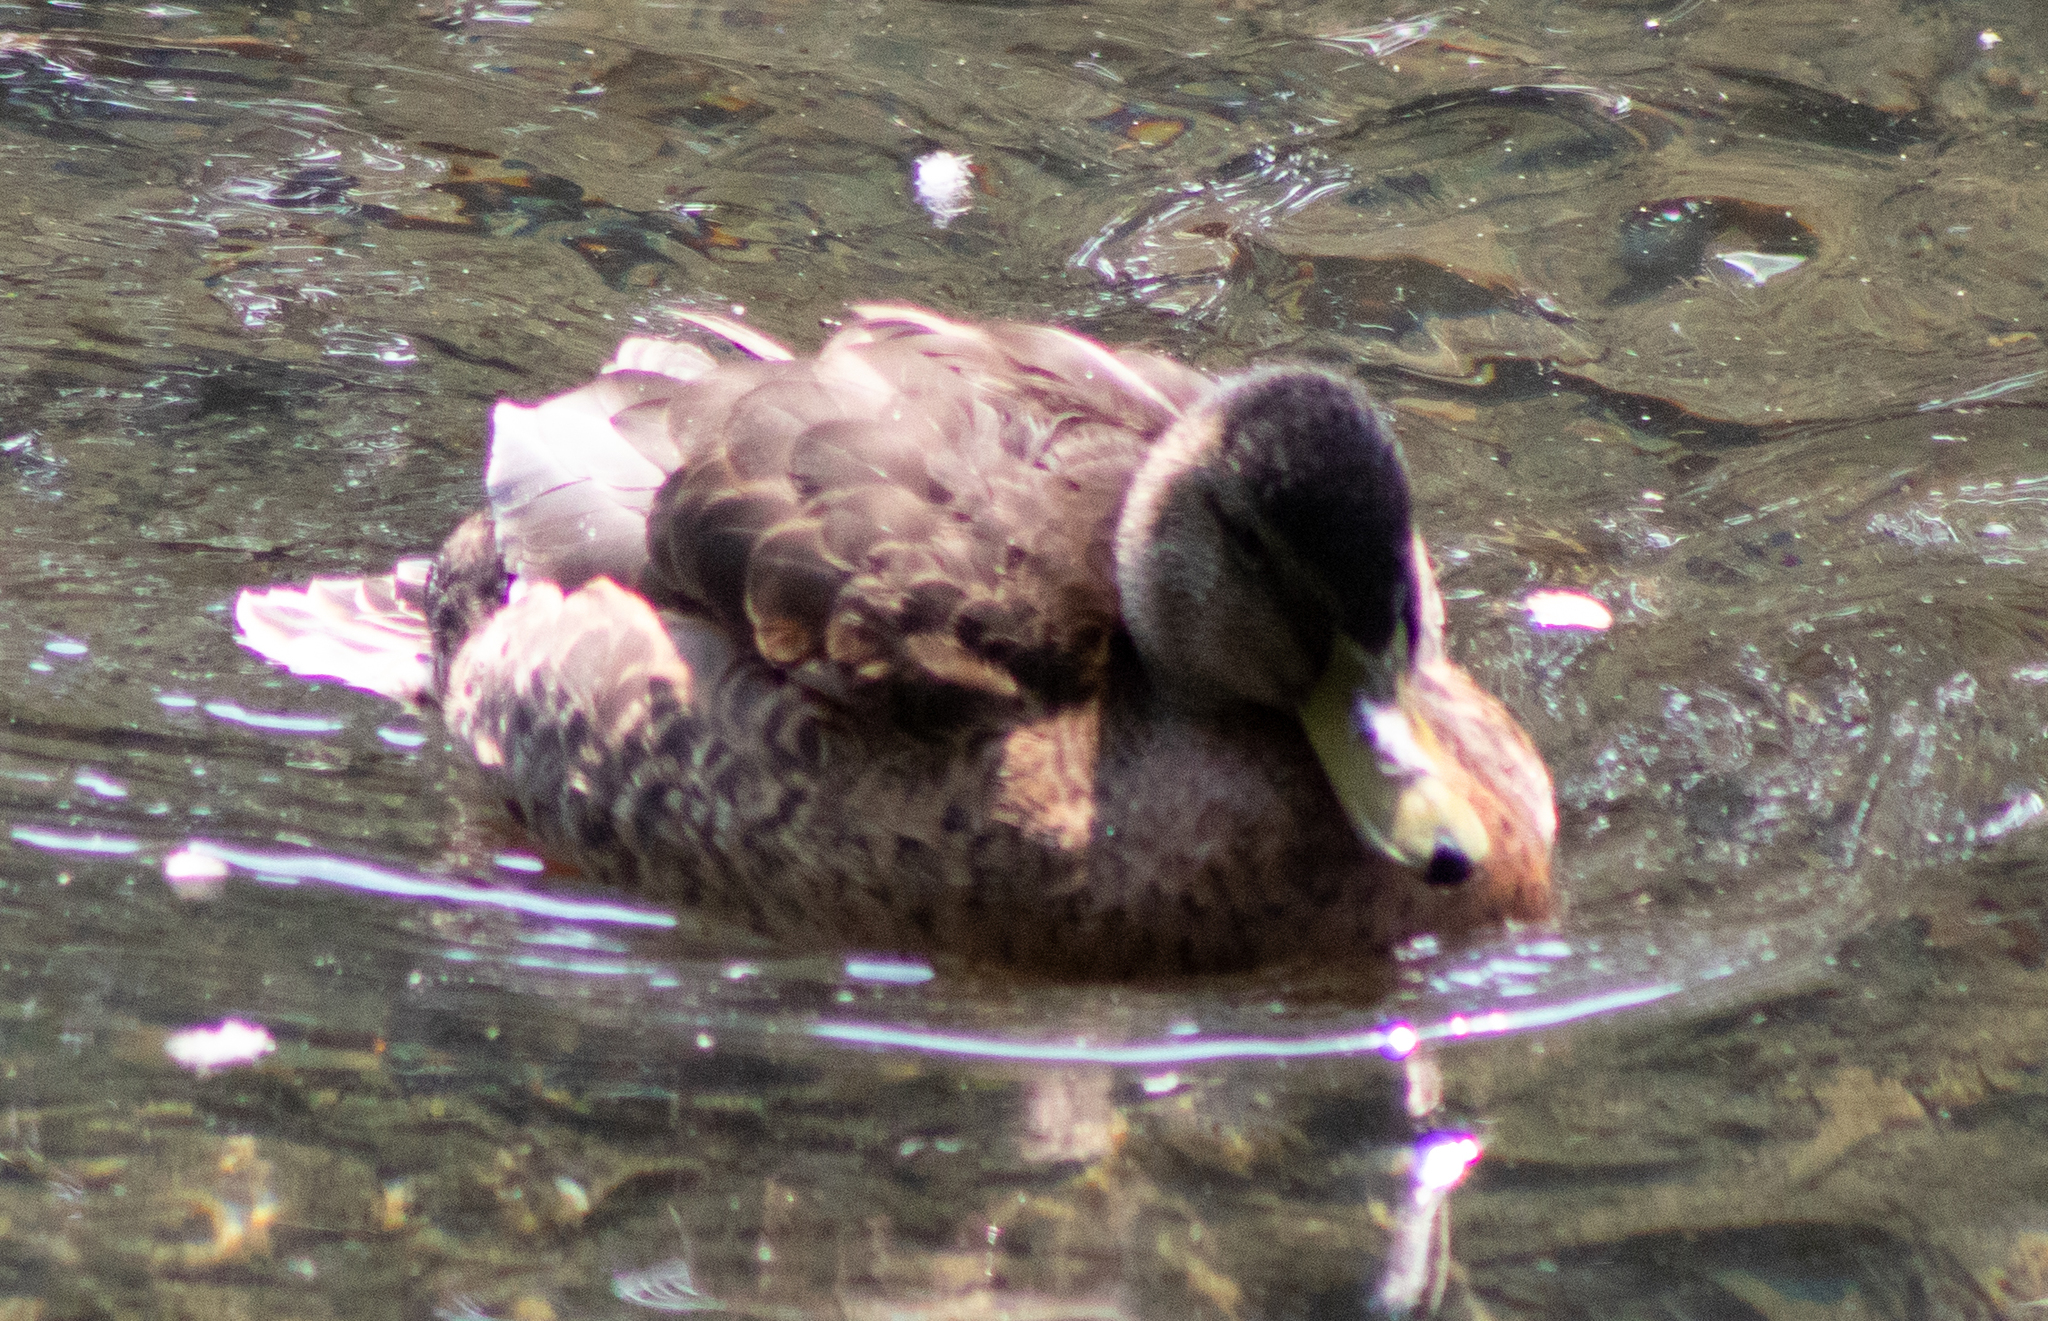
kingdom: Animalia
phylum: Chordata
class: Aves
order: Anseriformes
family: Anatidae
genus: Anas
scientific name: Anas platyrhynchos
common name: Mallard
